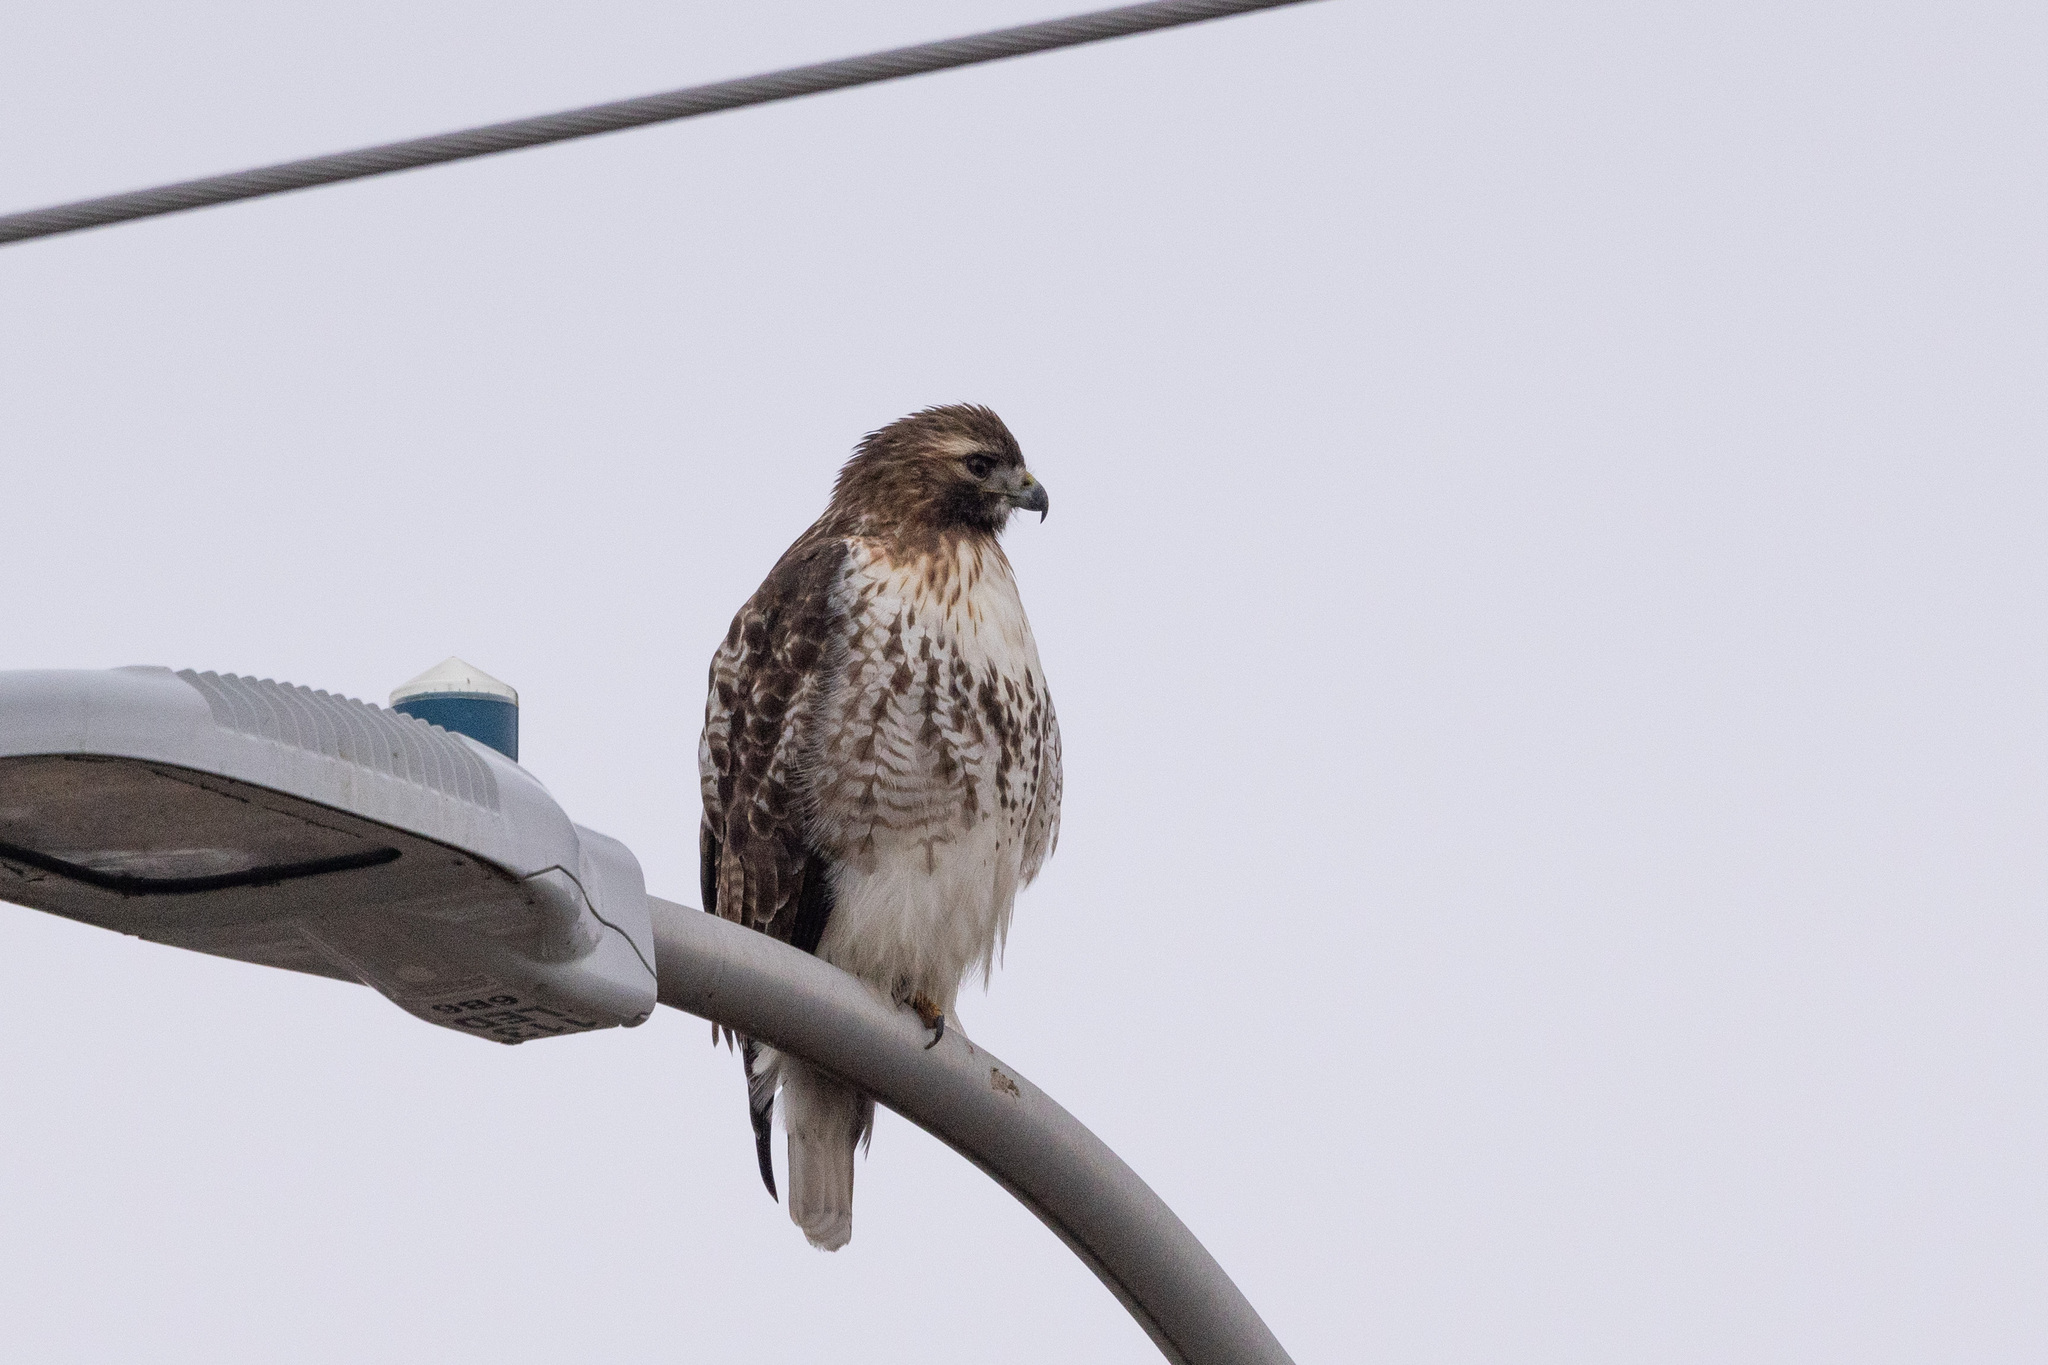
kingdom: Animalia
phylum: Chordata
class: Aves
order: Accipitriformes
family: Accipitridae
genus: Buteo
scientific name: Buteo jamaicensis
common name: Red-tailed hawk
